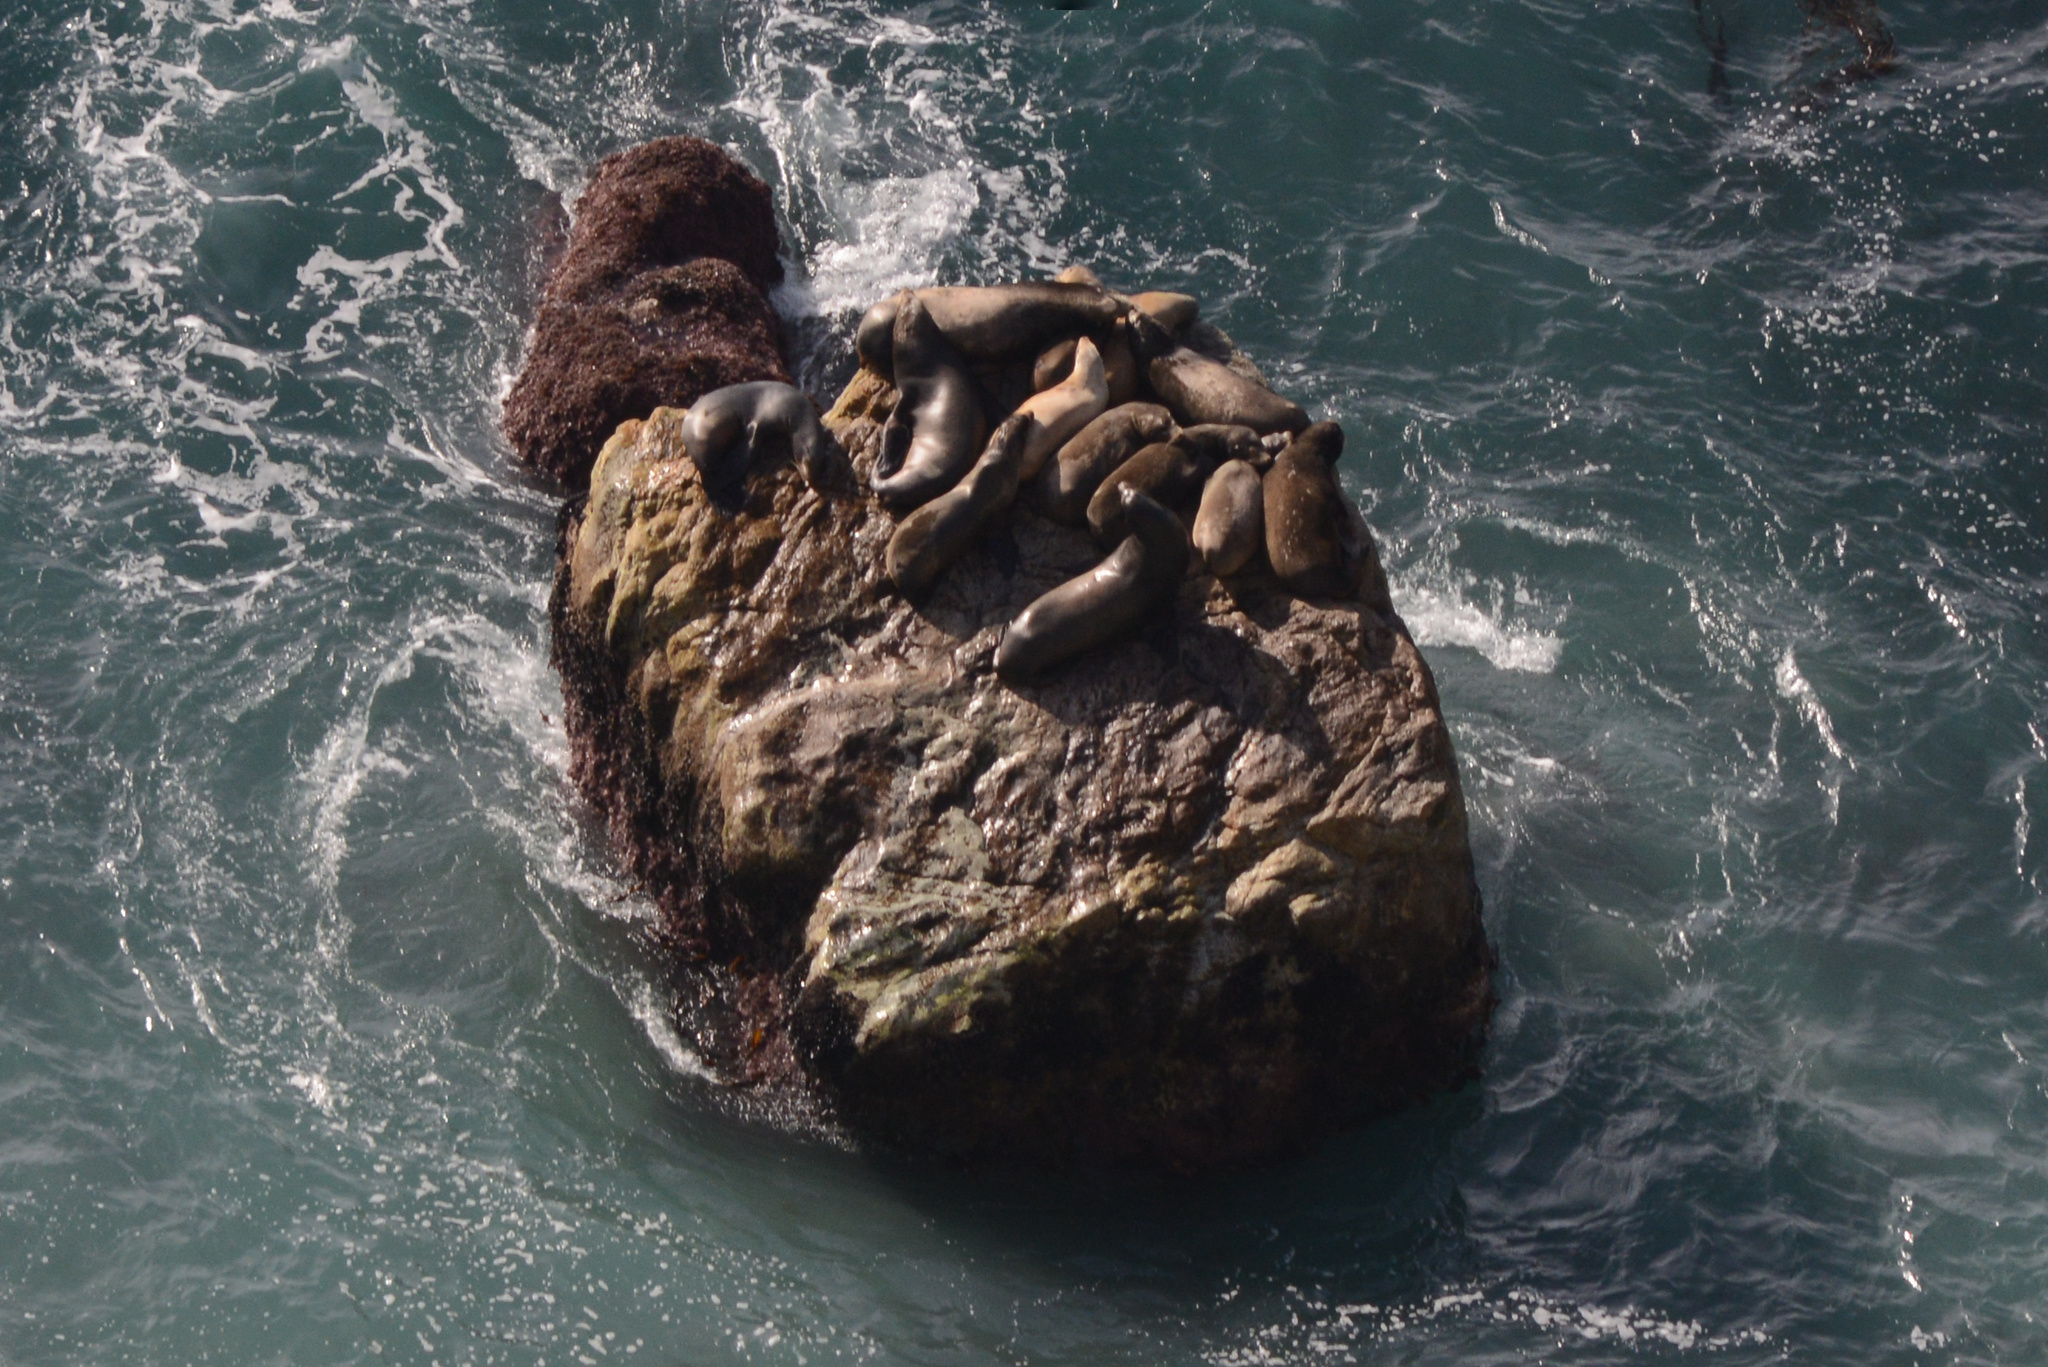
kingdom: Animalia
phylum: Chordata
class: Mammalia
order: Carnivora
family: Otariidae
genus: Zalophus
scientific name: Zalophus californianus
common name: California sea lion
